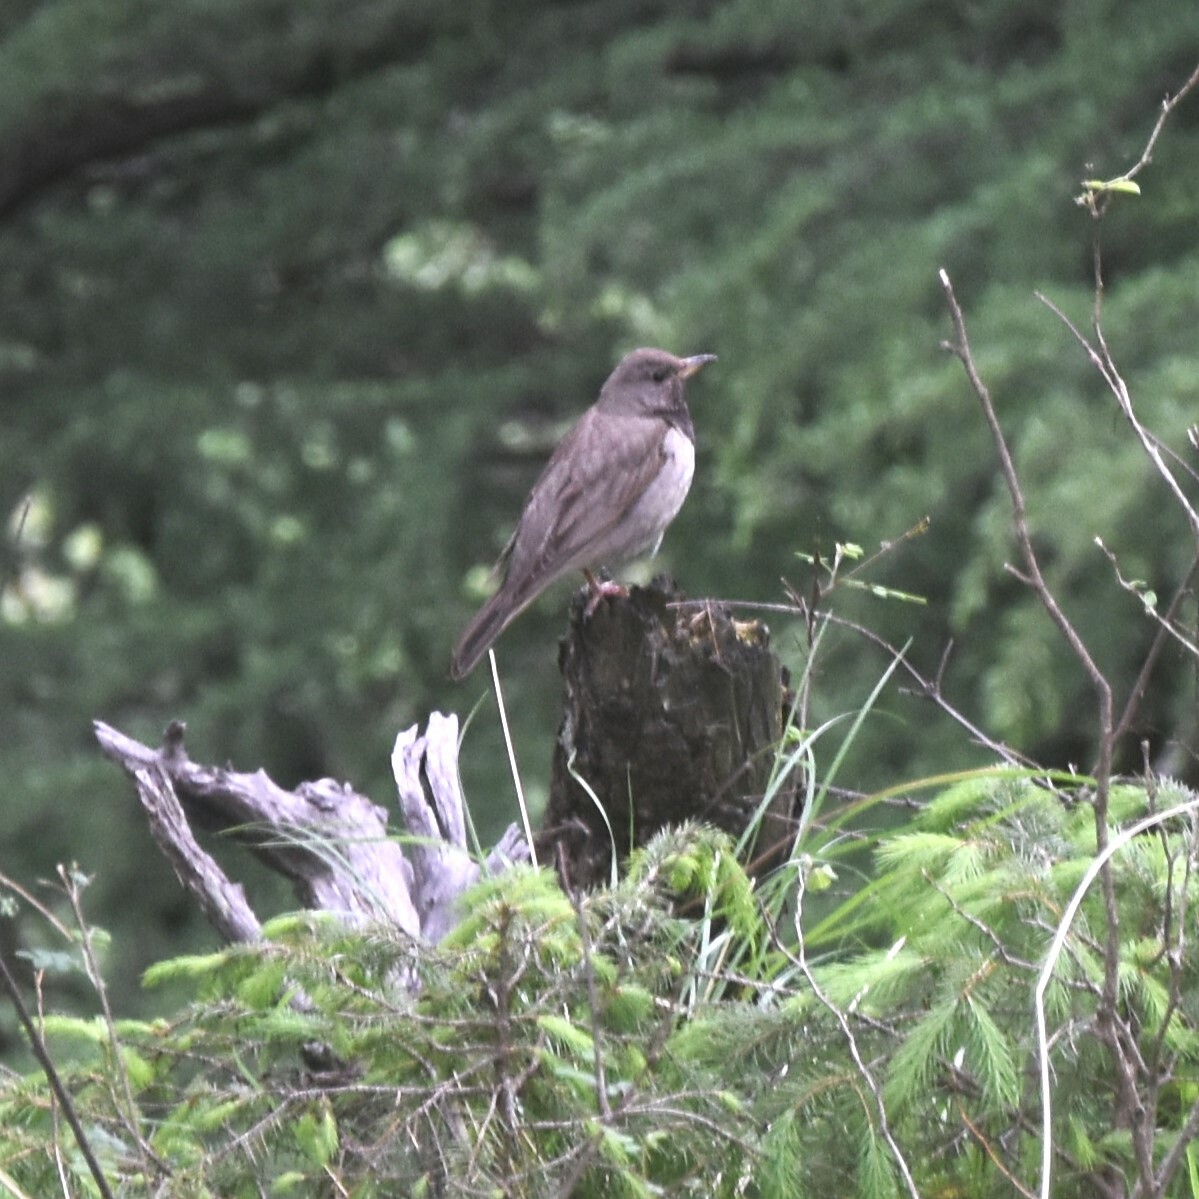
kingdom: Animalia
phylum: Chordata
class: Aves
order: Passeriformes
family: Turdidae
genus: Turdus
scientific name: Turdus atrogularis
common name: Black-throated thrush
